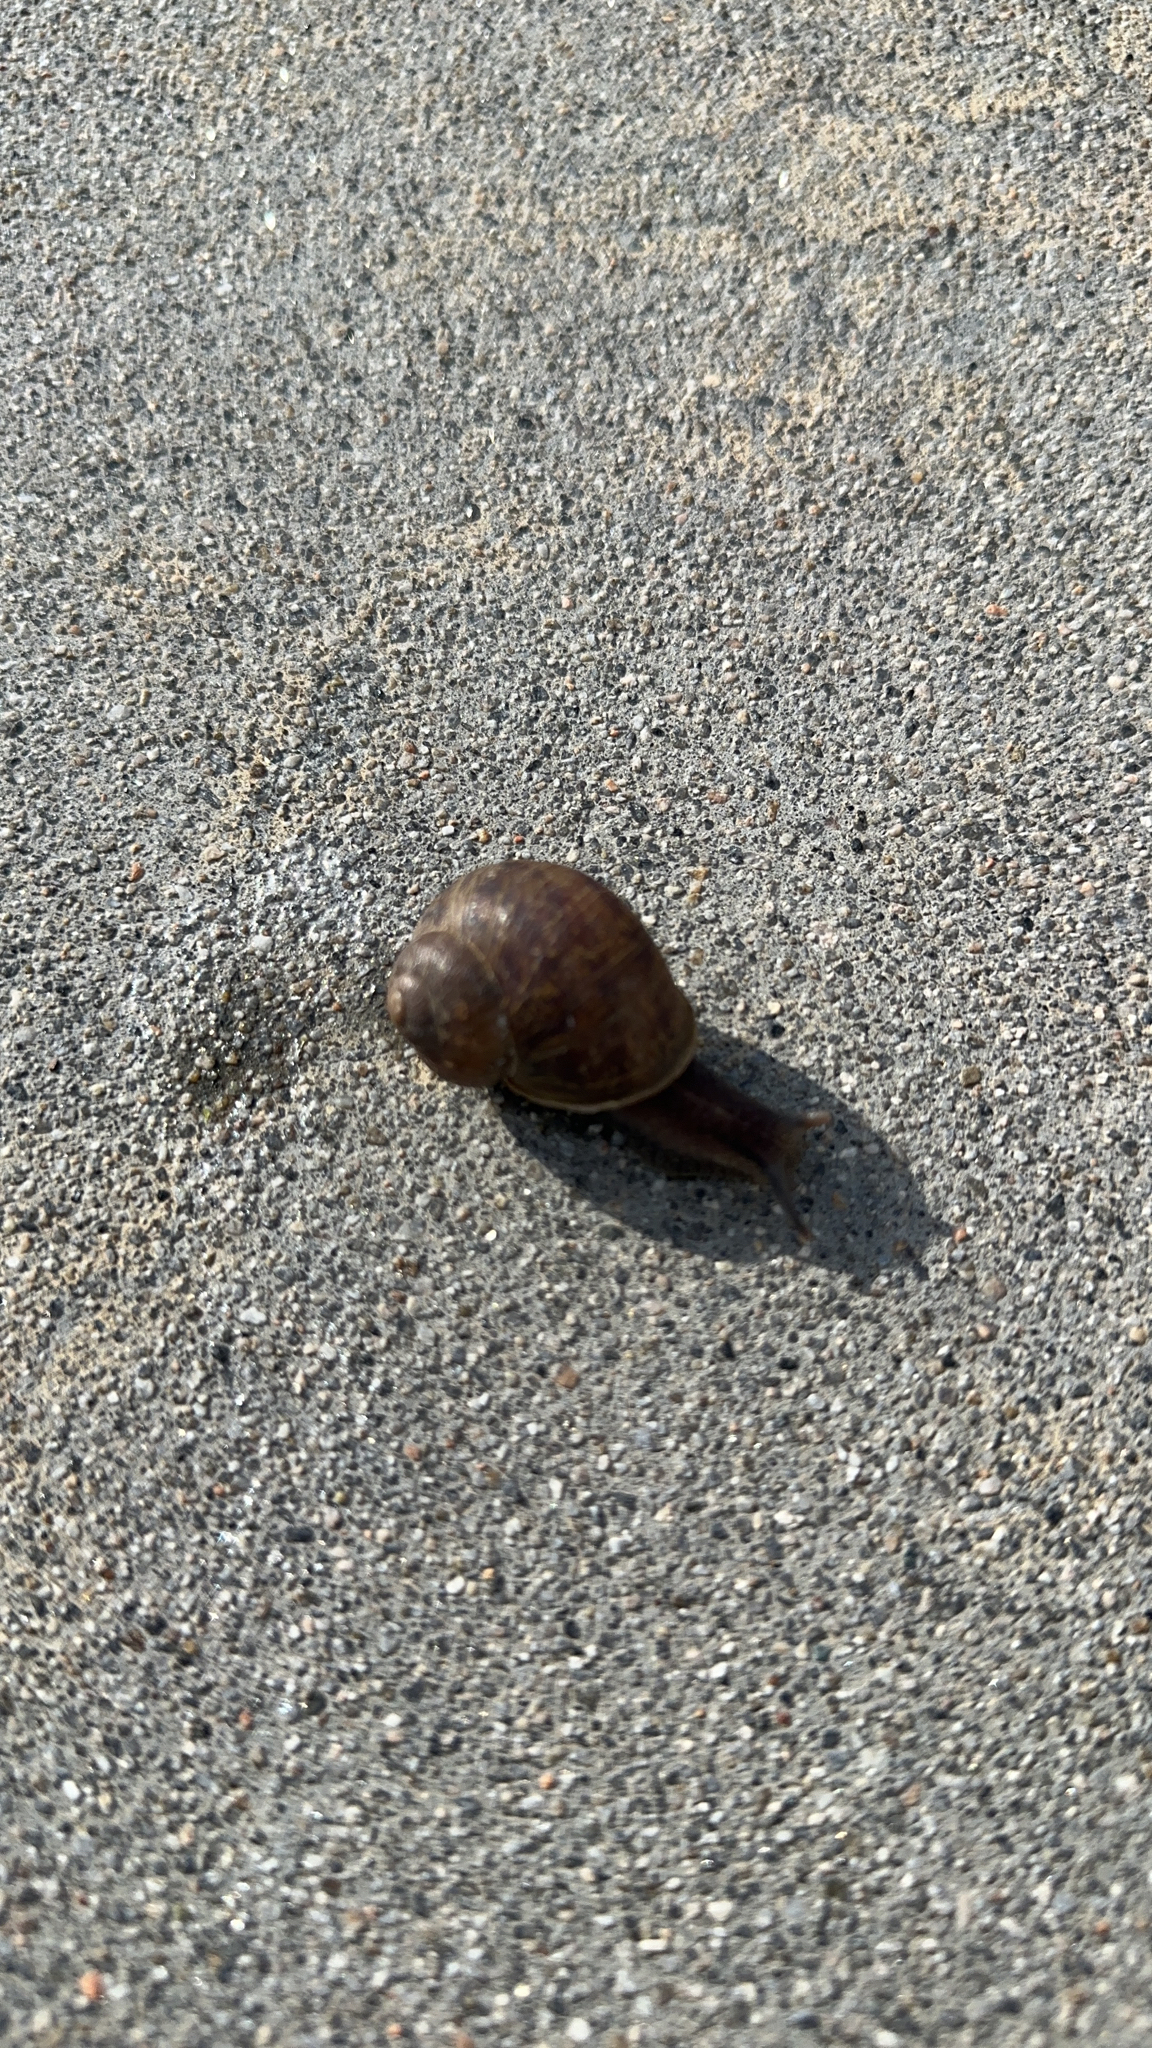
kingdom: Animalia
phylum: Mollusca
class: Gastropoda
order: Stylommatophora
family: Helicidae
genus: Cornu
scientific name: Cornu aspersum
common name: Brown garden snail
